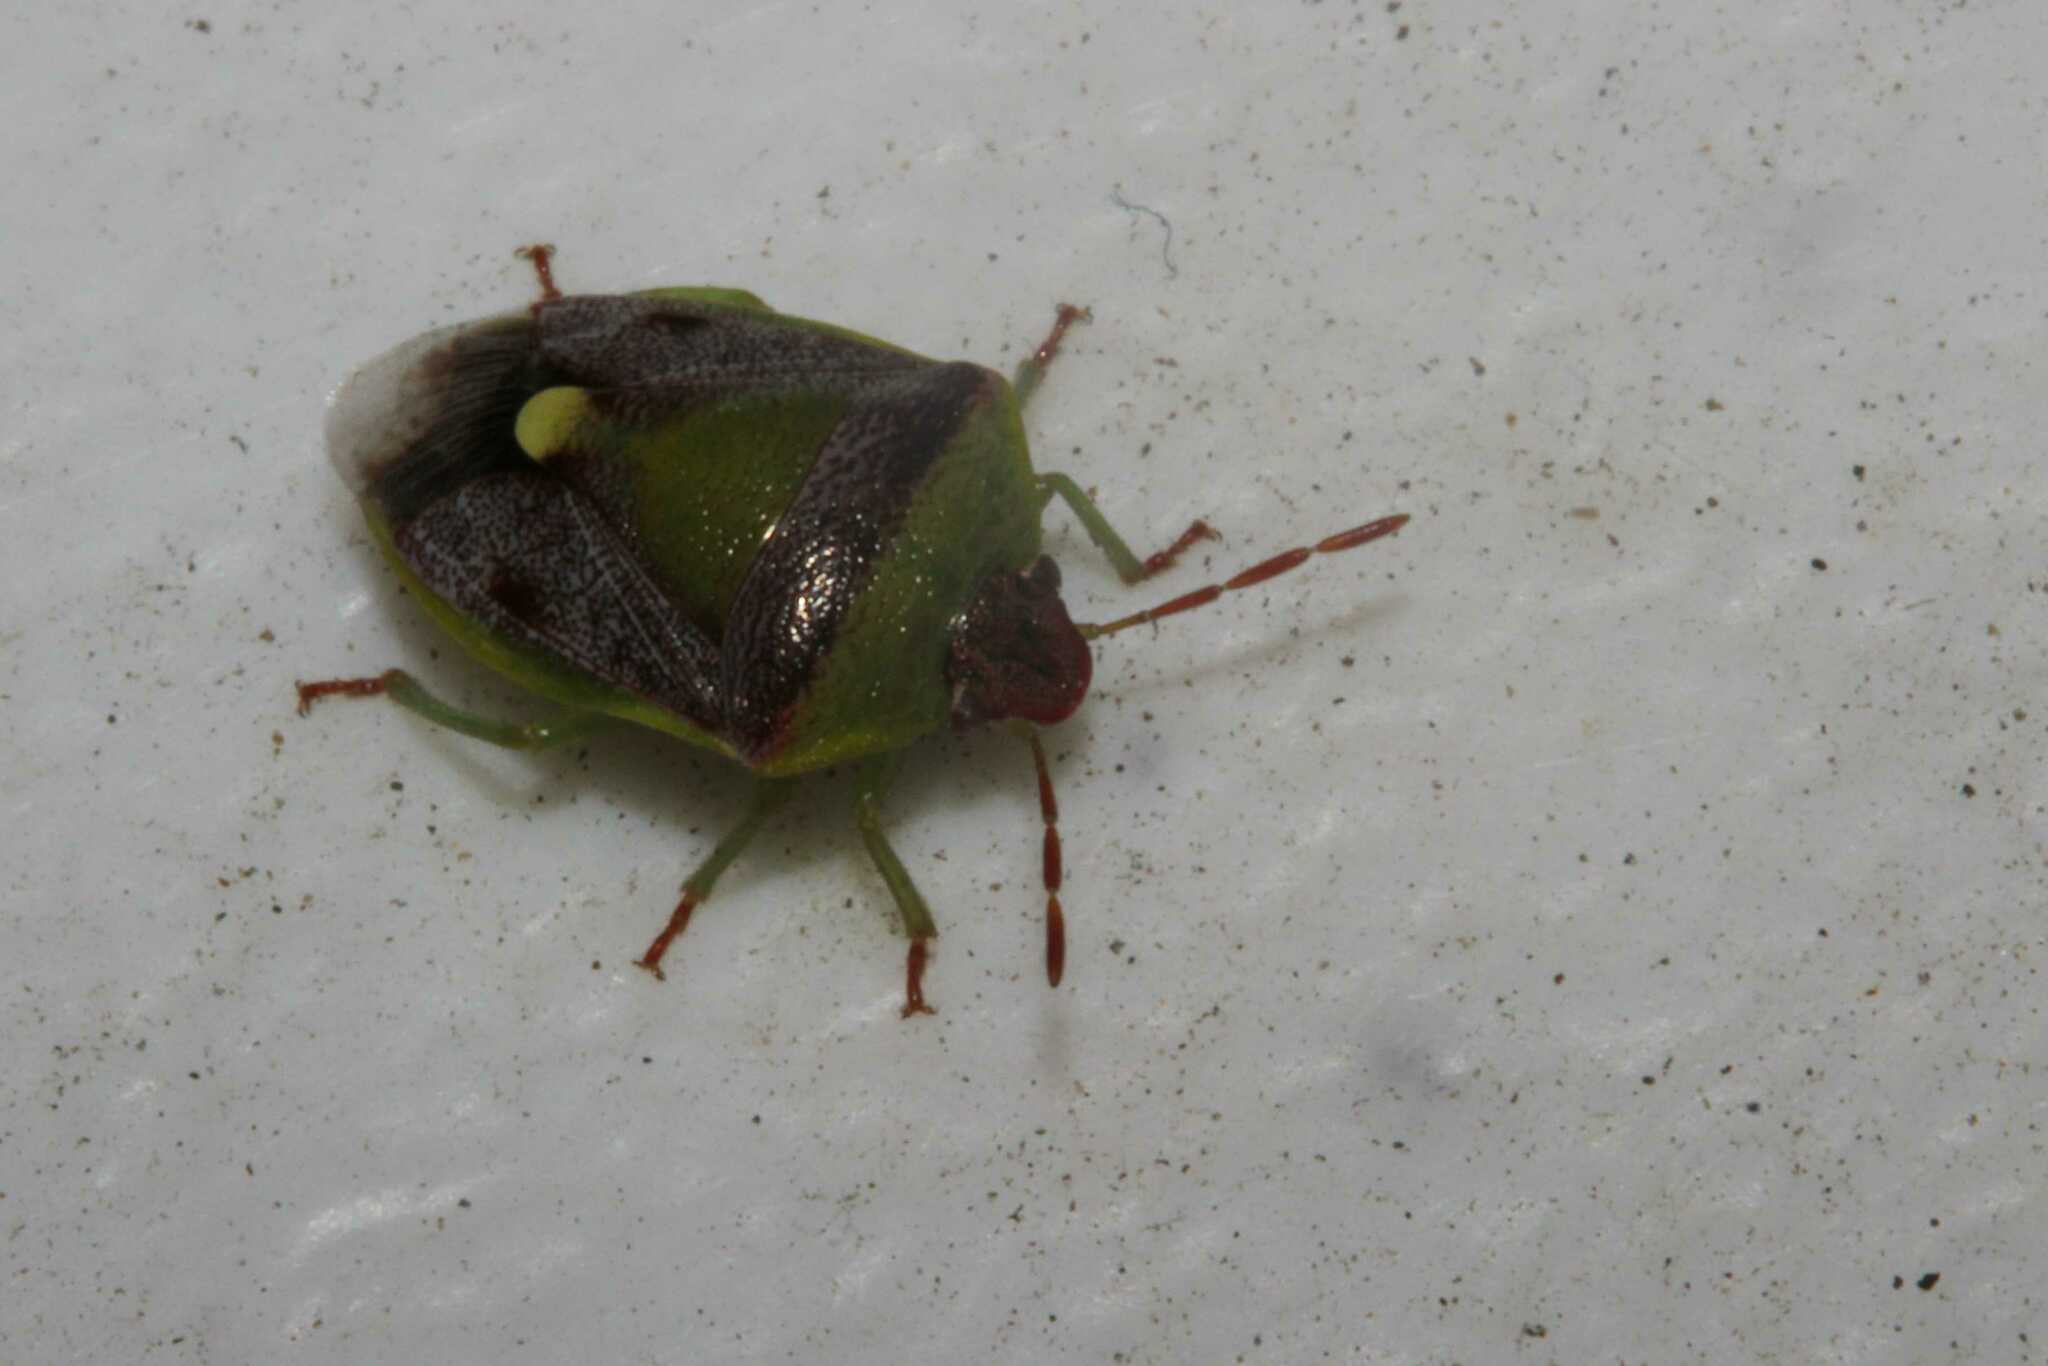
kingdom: Animalia
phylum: Arthropoda
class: Insecta
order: Hemiptera
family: Pentatomidae
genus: Banasa
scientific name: Banasa dimidiata
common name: Green burgundy stink bug
